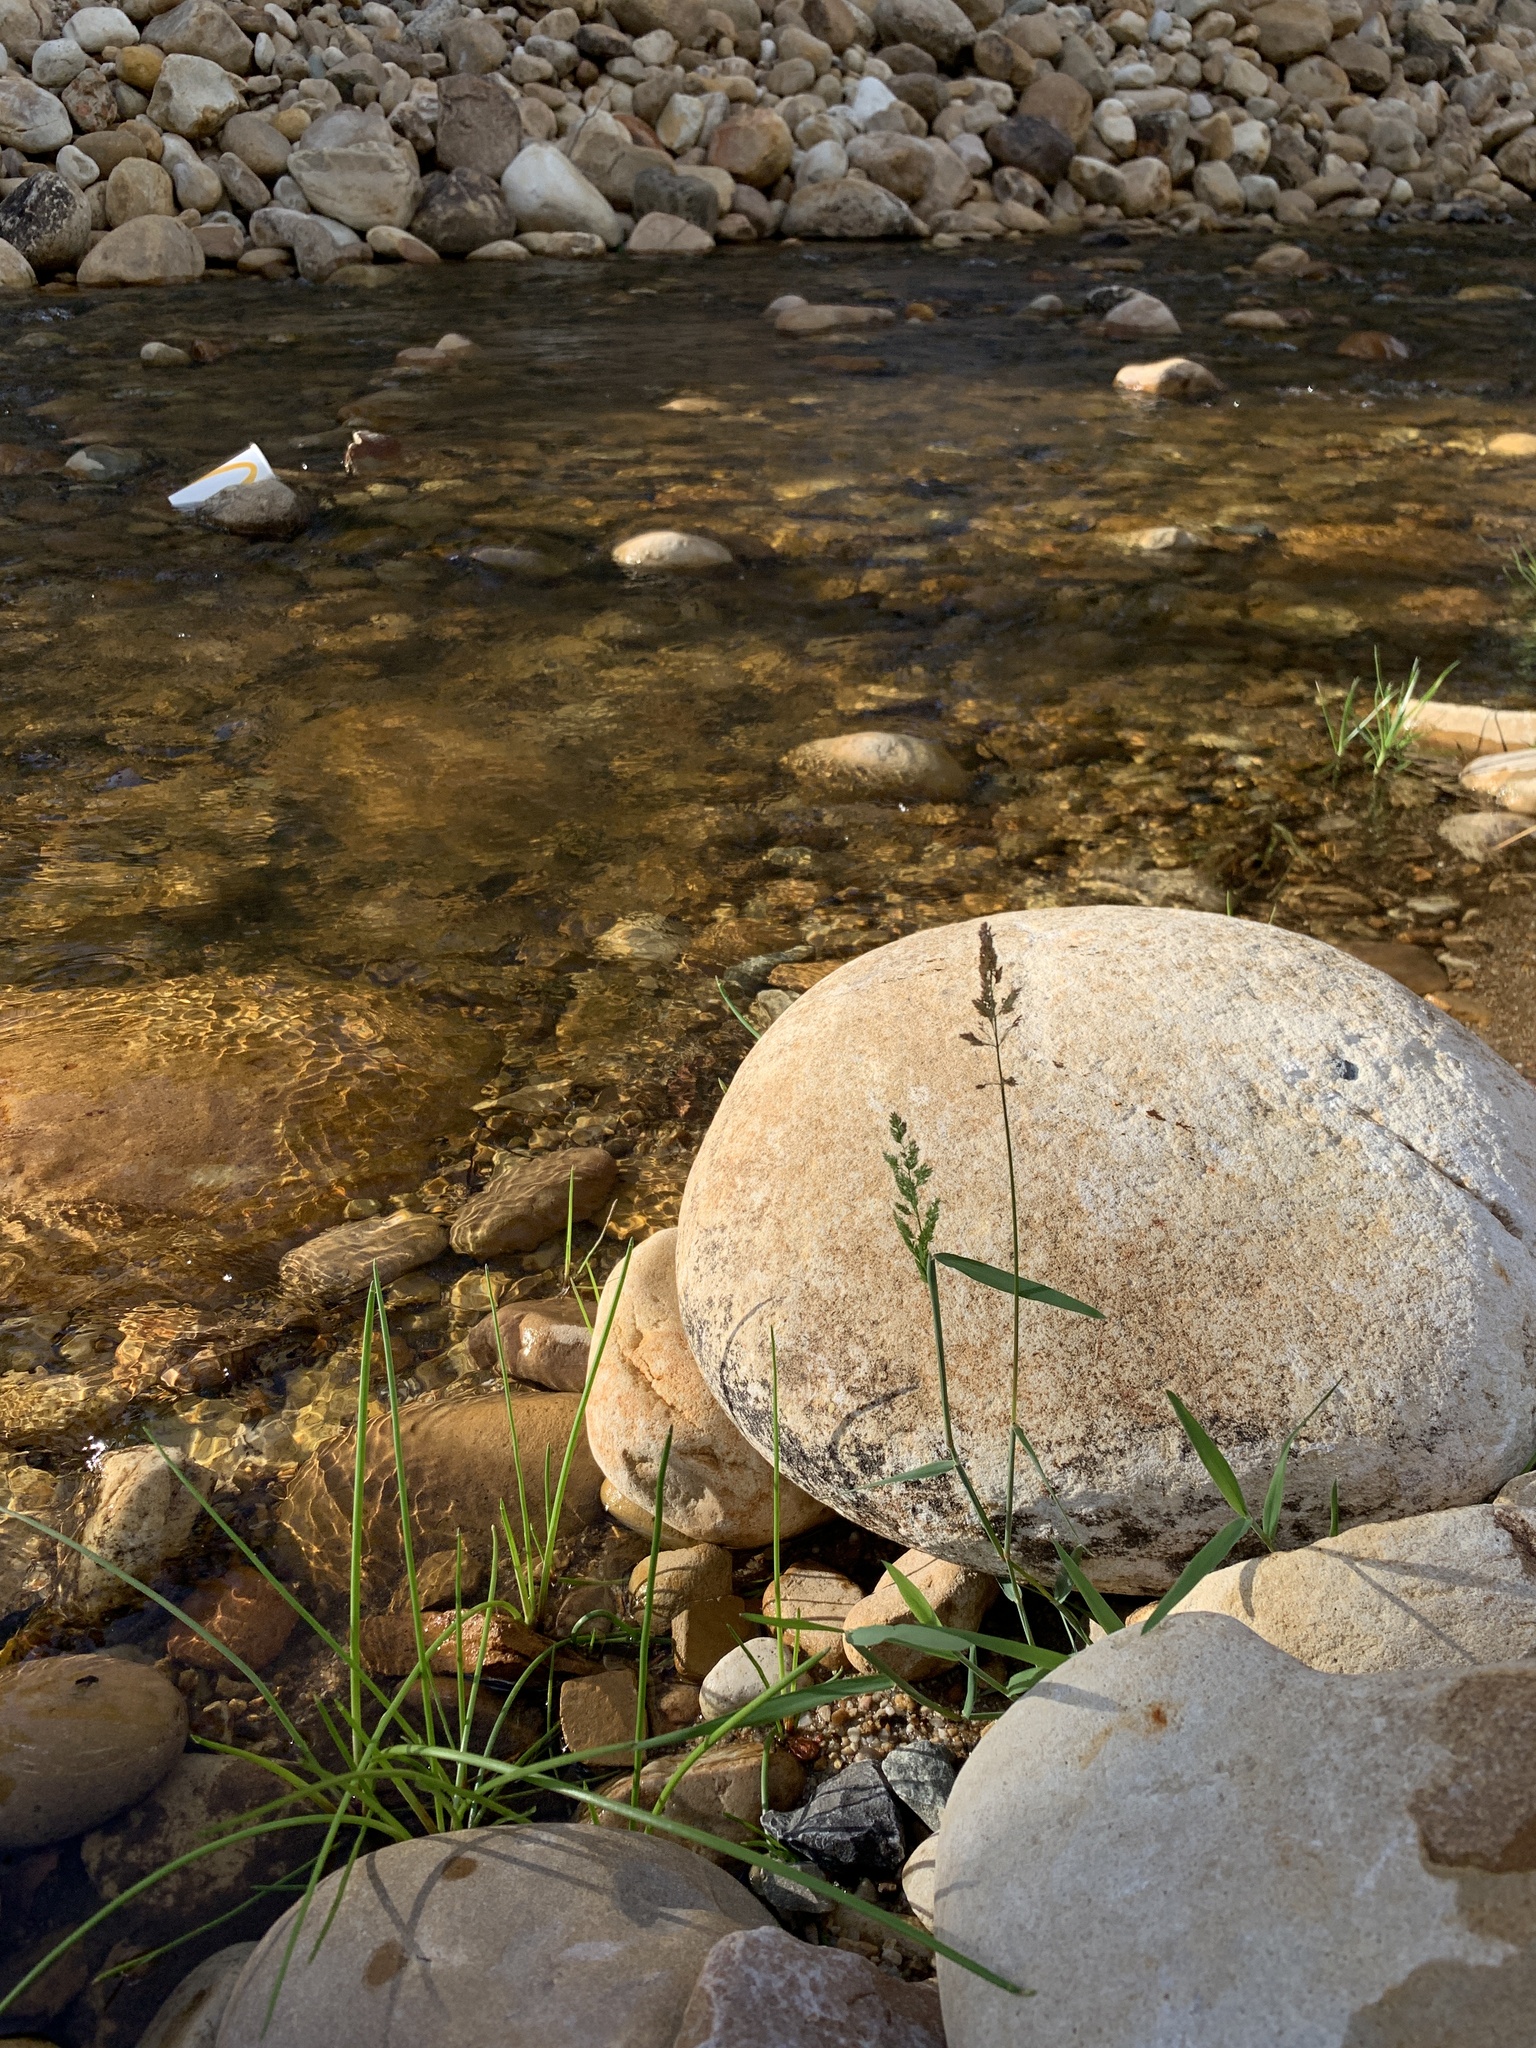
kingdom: Plantae
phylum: Tracheophyta
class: Liliopsida
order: Poales
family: Poaceae
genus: Polypogon
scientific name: Polypogon viridis
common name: Water bent
